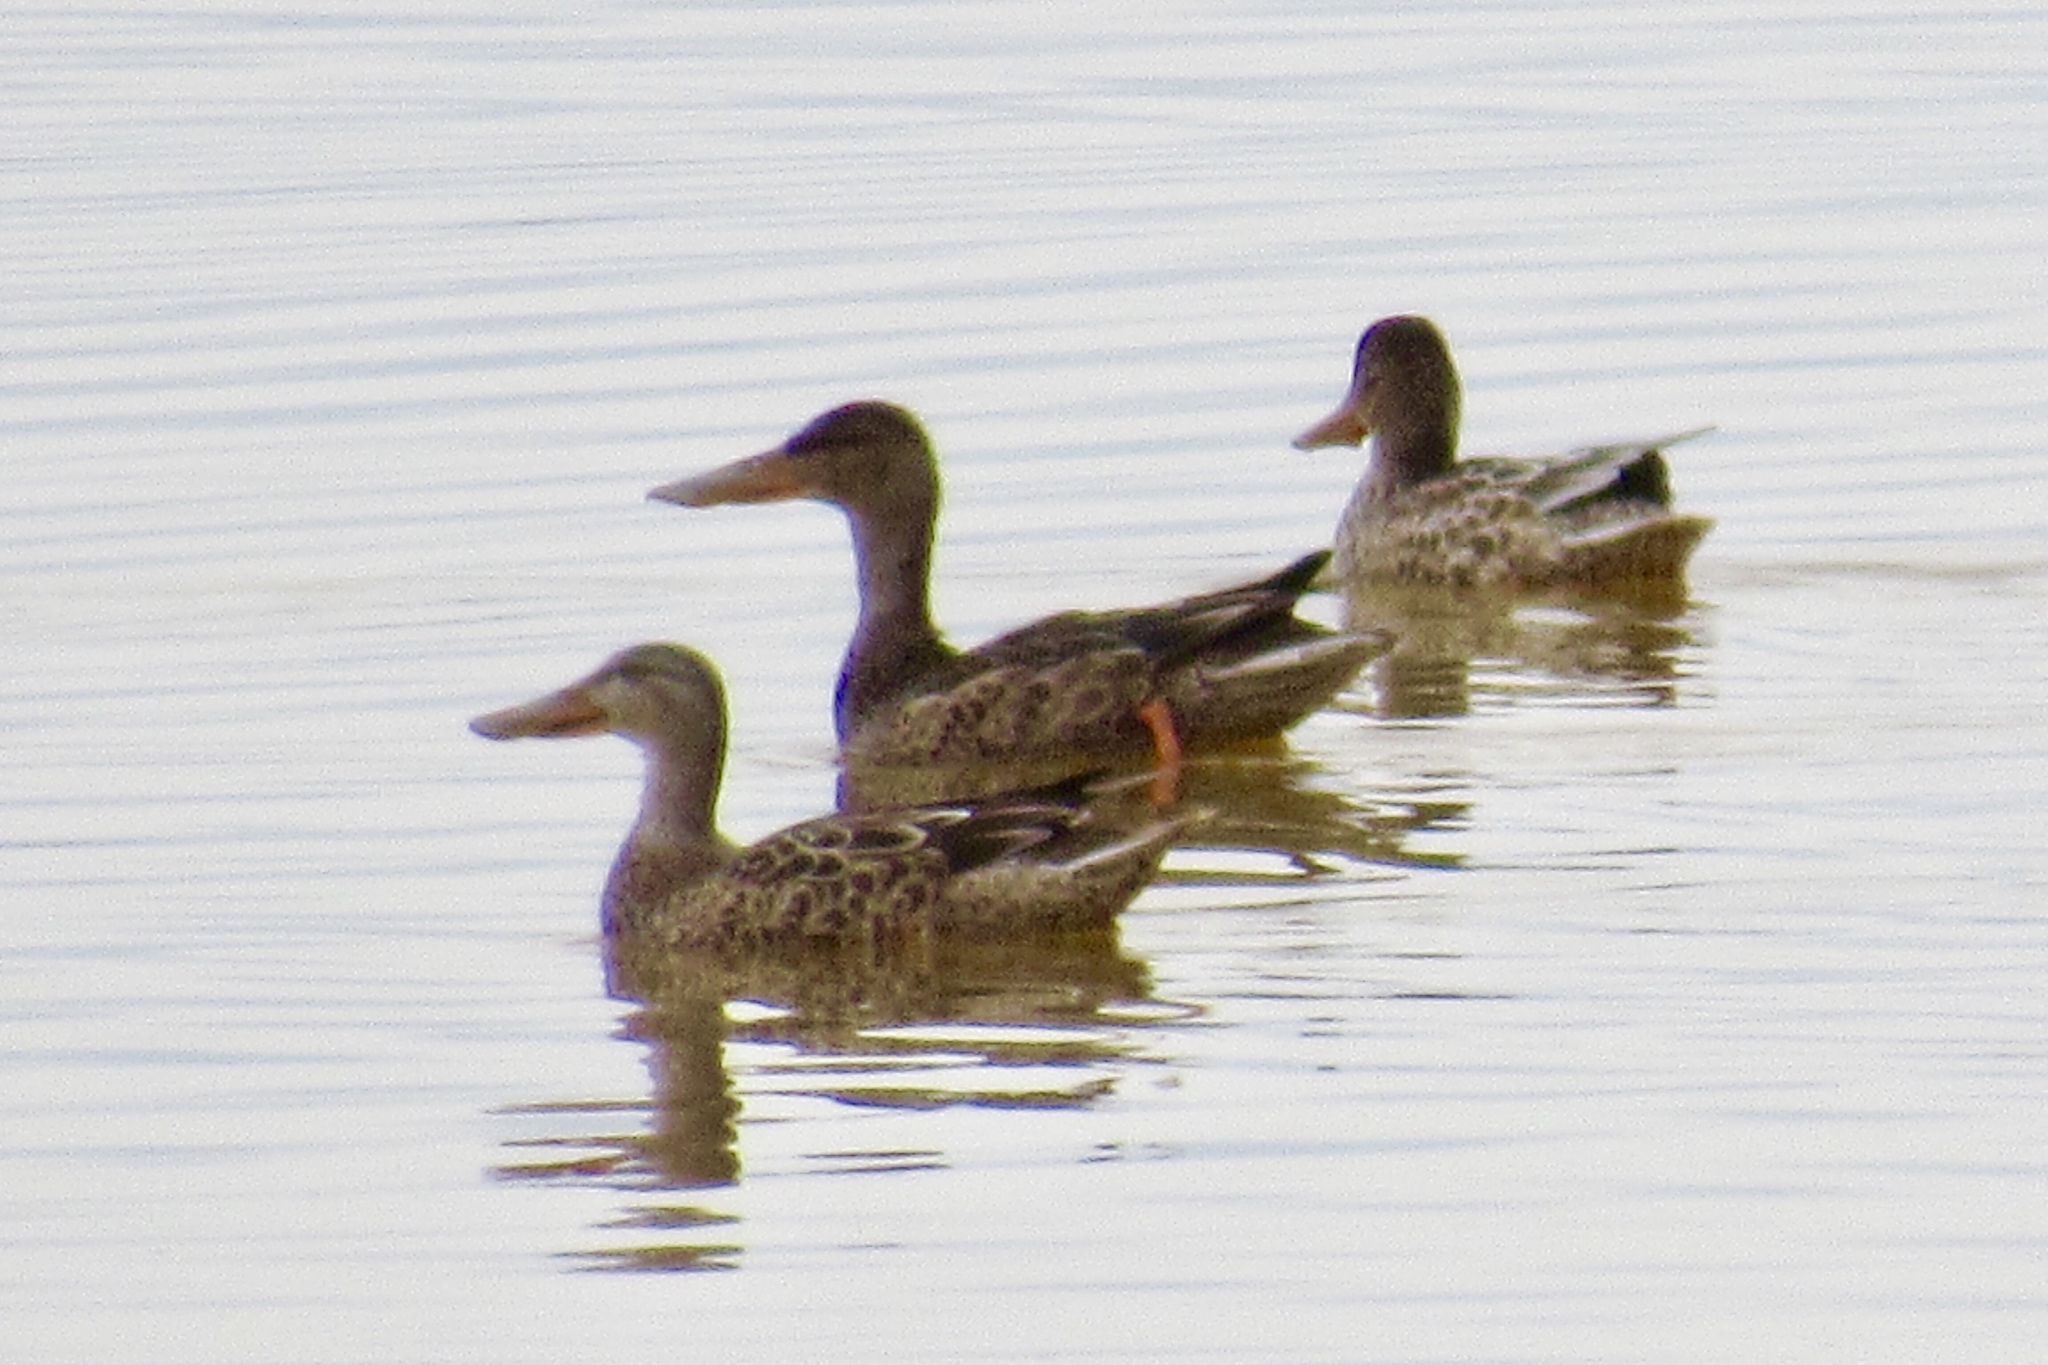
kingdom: Animalia
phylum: Chordata
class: Aves
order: Anseriformes
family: Anatidae
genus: Spatula
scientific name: Spatula clypeata
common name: Northern shoveler
